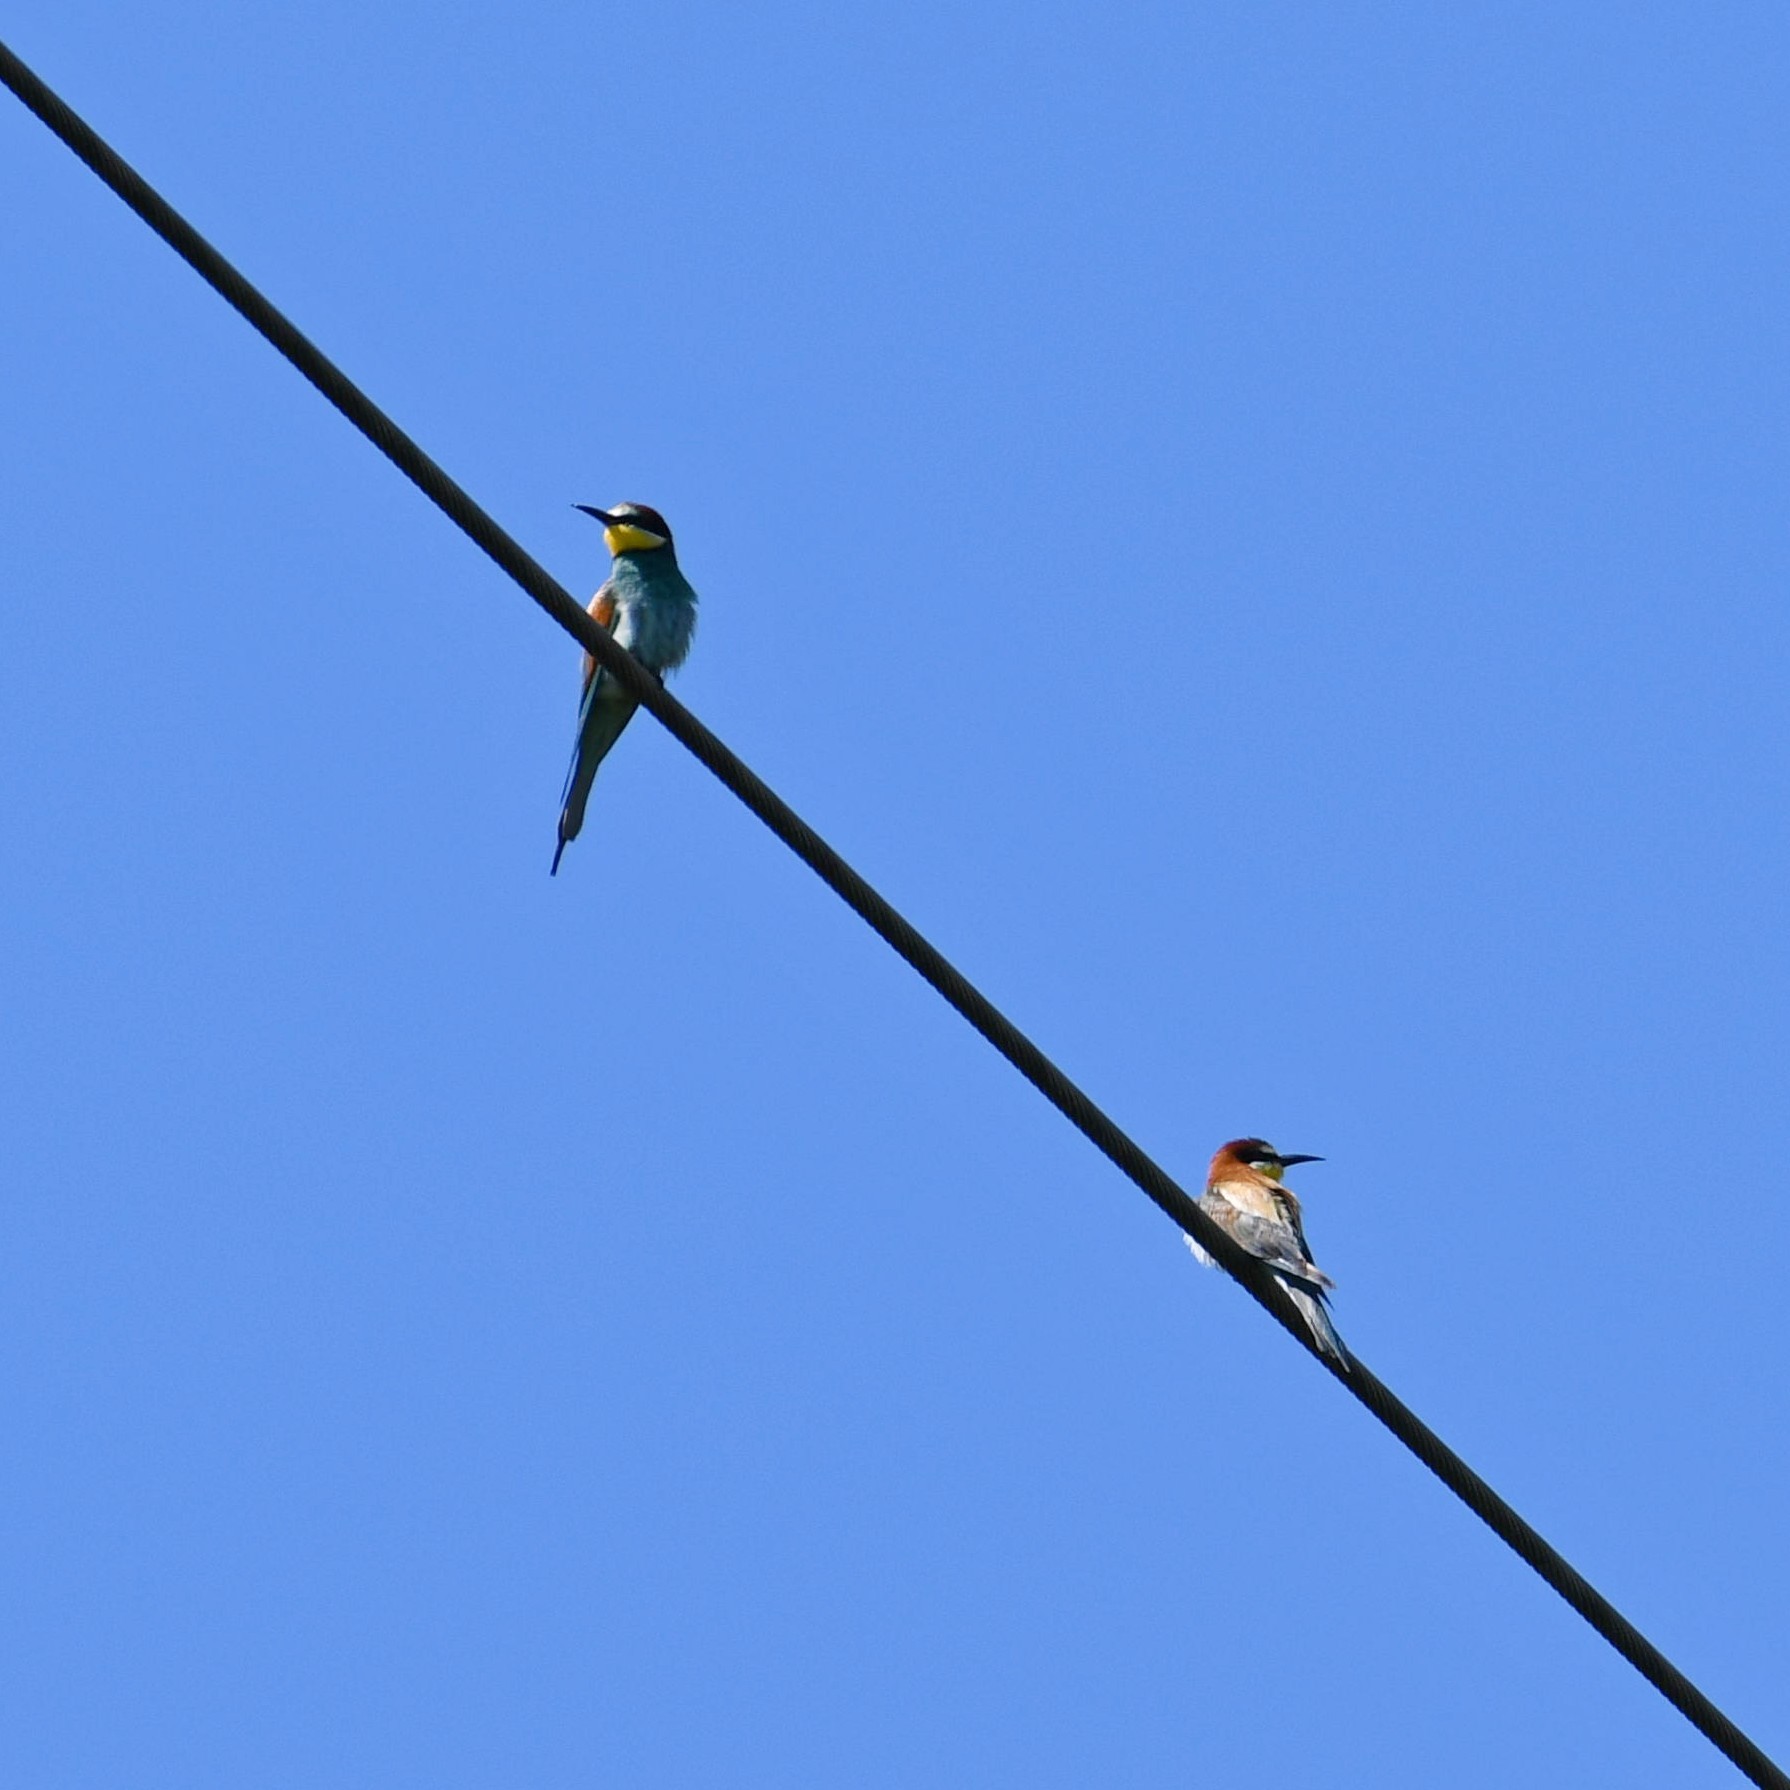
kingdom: Animalia
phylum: Chordata
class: Aves
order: Coraciiformes
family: Meropidae
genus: Merops
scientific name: Merops apiaster
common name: European bee-eater
